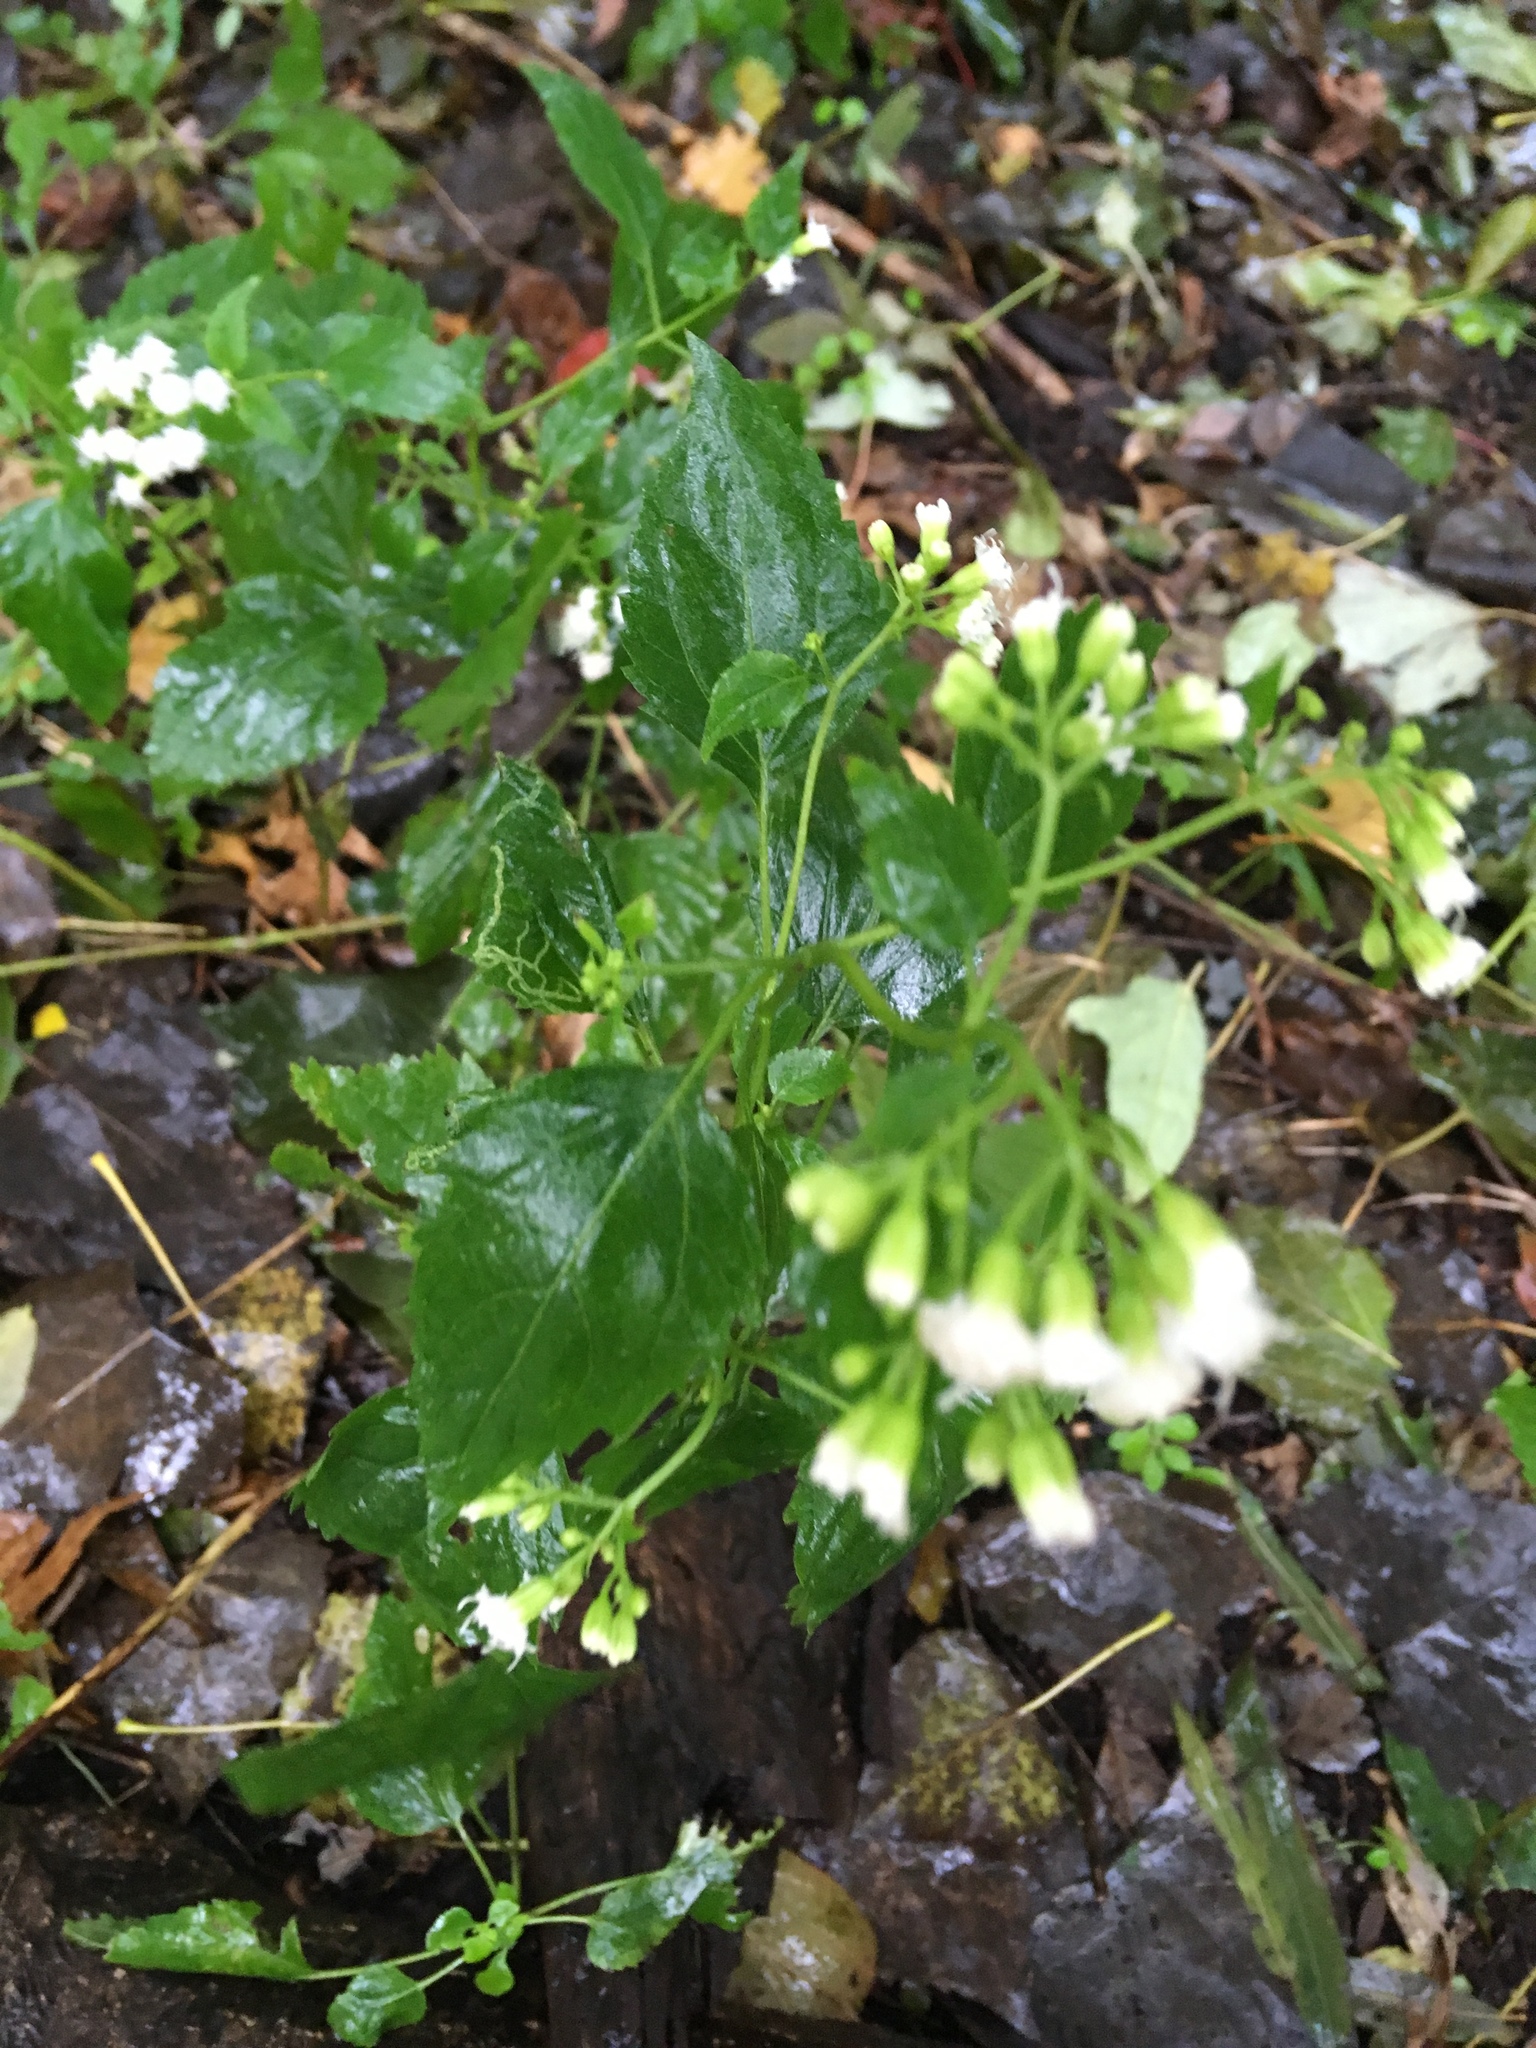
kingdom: Plantae
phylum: Tracheophyta
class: Magnoliopsida
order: Asterales
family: Asteraceae
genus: Ageratina
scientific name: Ageratina altissima
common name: White snakeroot
